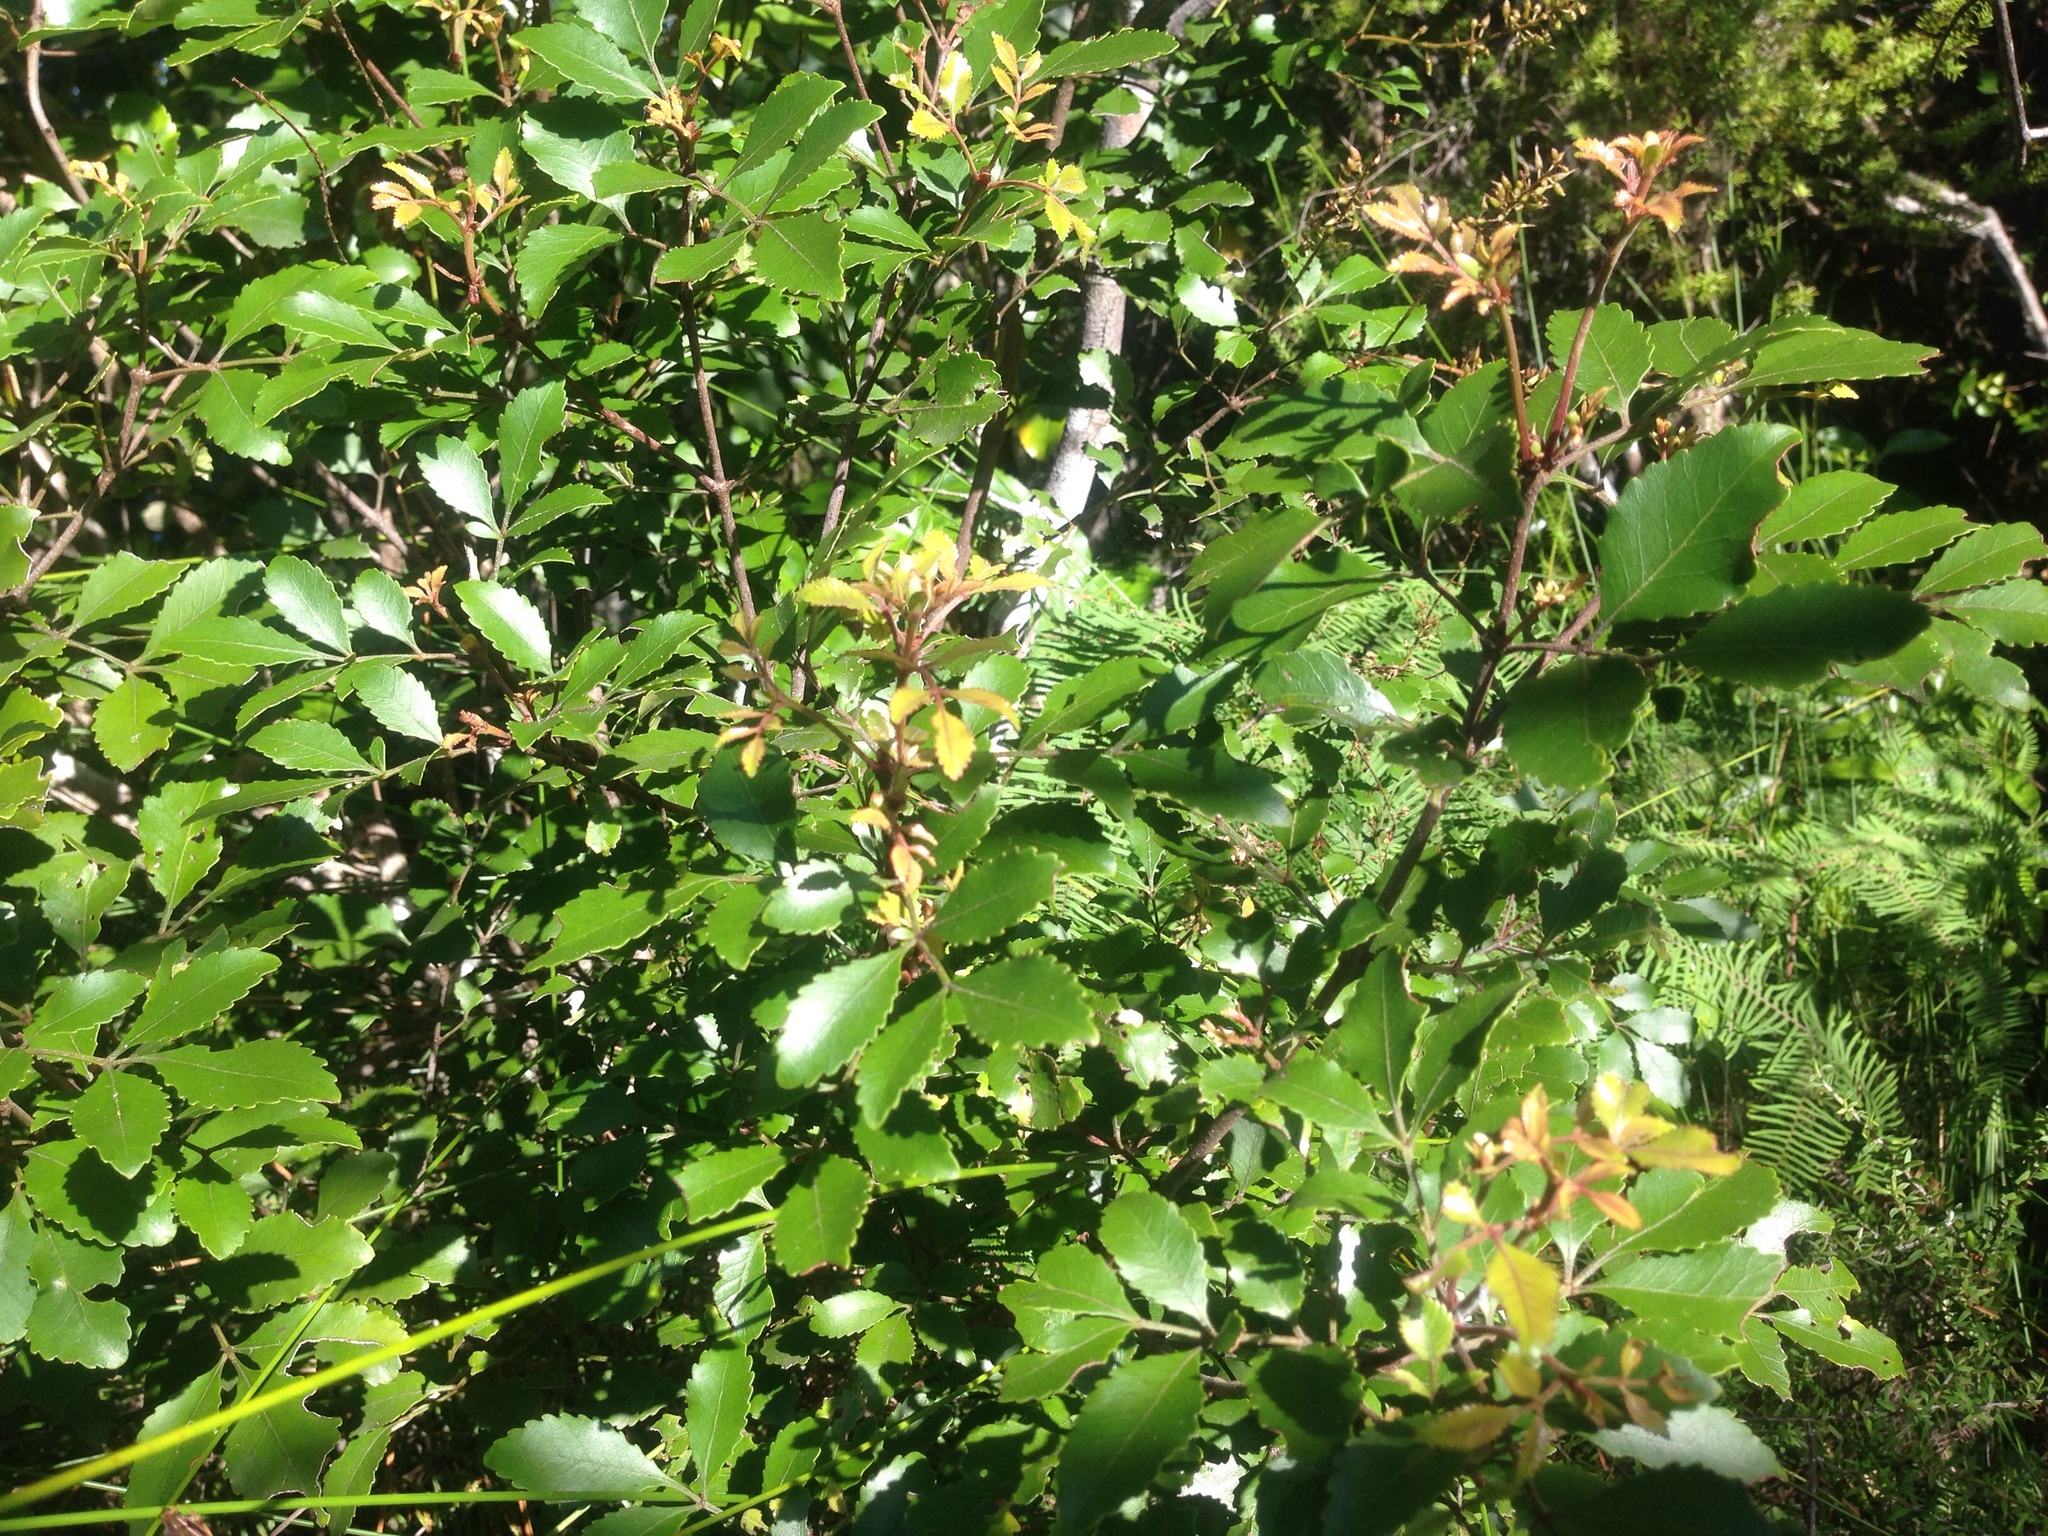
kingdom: Plantae
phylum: Tracheophyta
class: Magnoliopsida
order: Oxalidales
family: Cunoniaceae
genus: Pterophylla
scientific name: Pterophylla sylvicola
